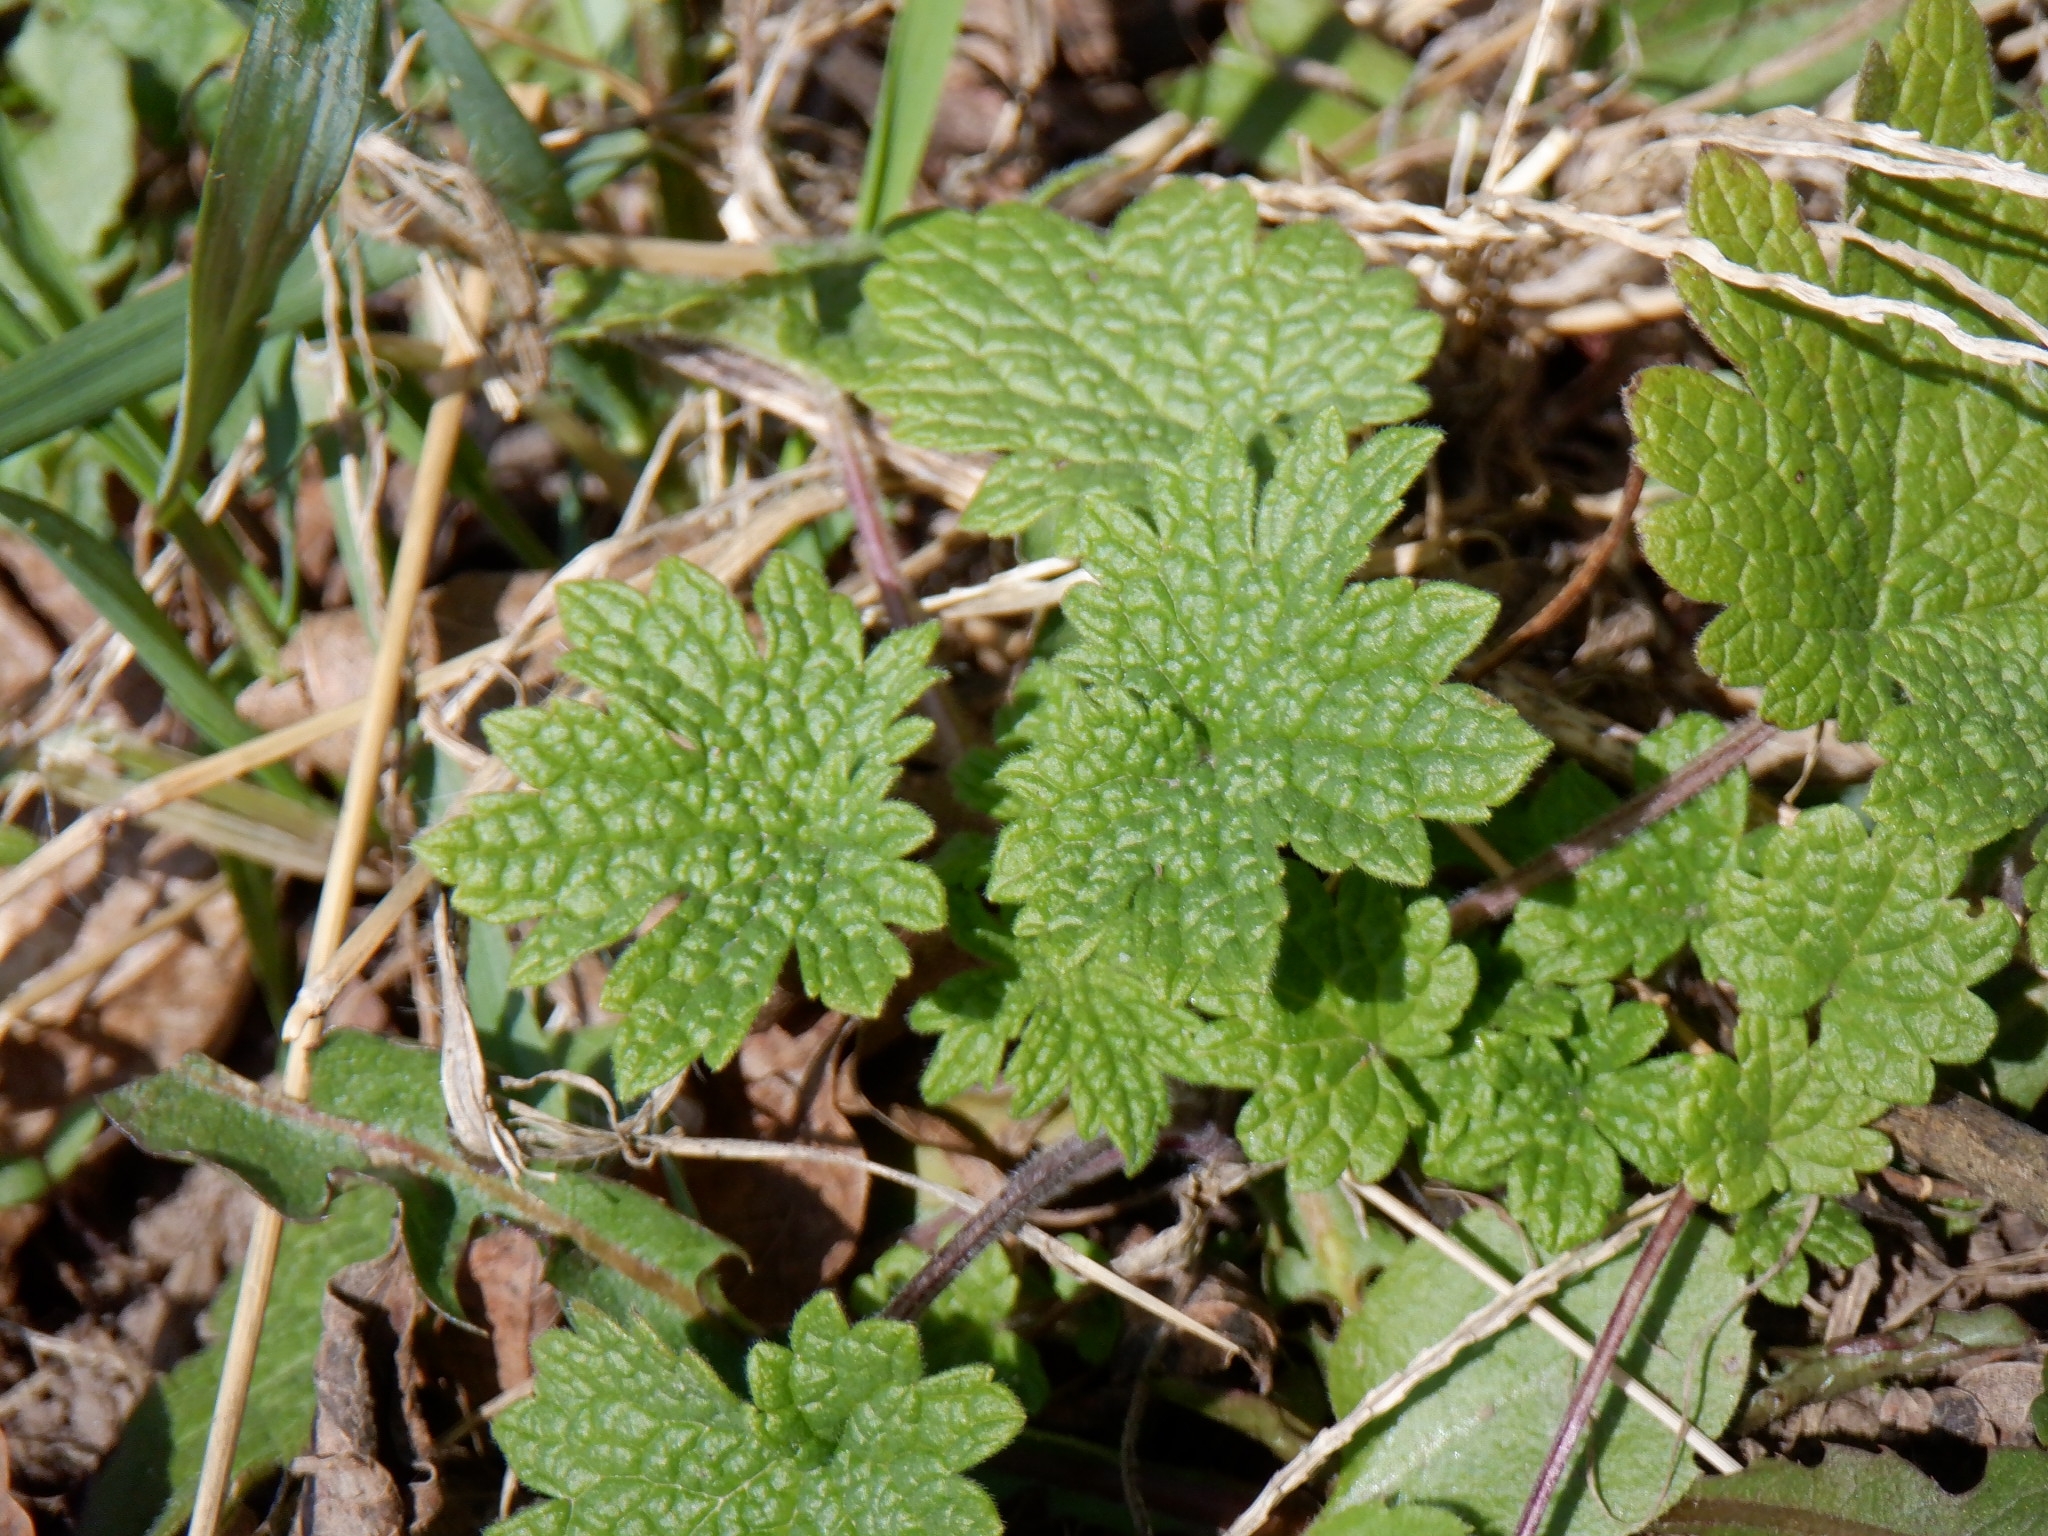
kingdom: Plantae
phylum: Tracheophyta
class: Magnoliopsida
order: Lamiales
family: Lamiaceae
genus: Leonurus
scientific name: Leonurus cardiaca
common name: Motherwort
